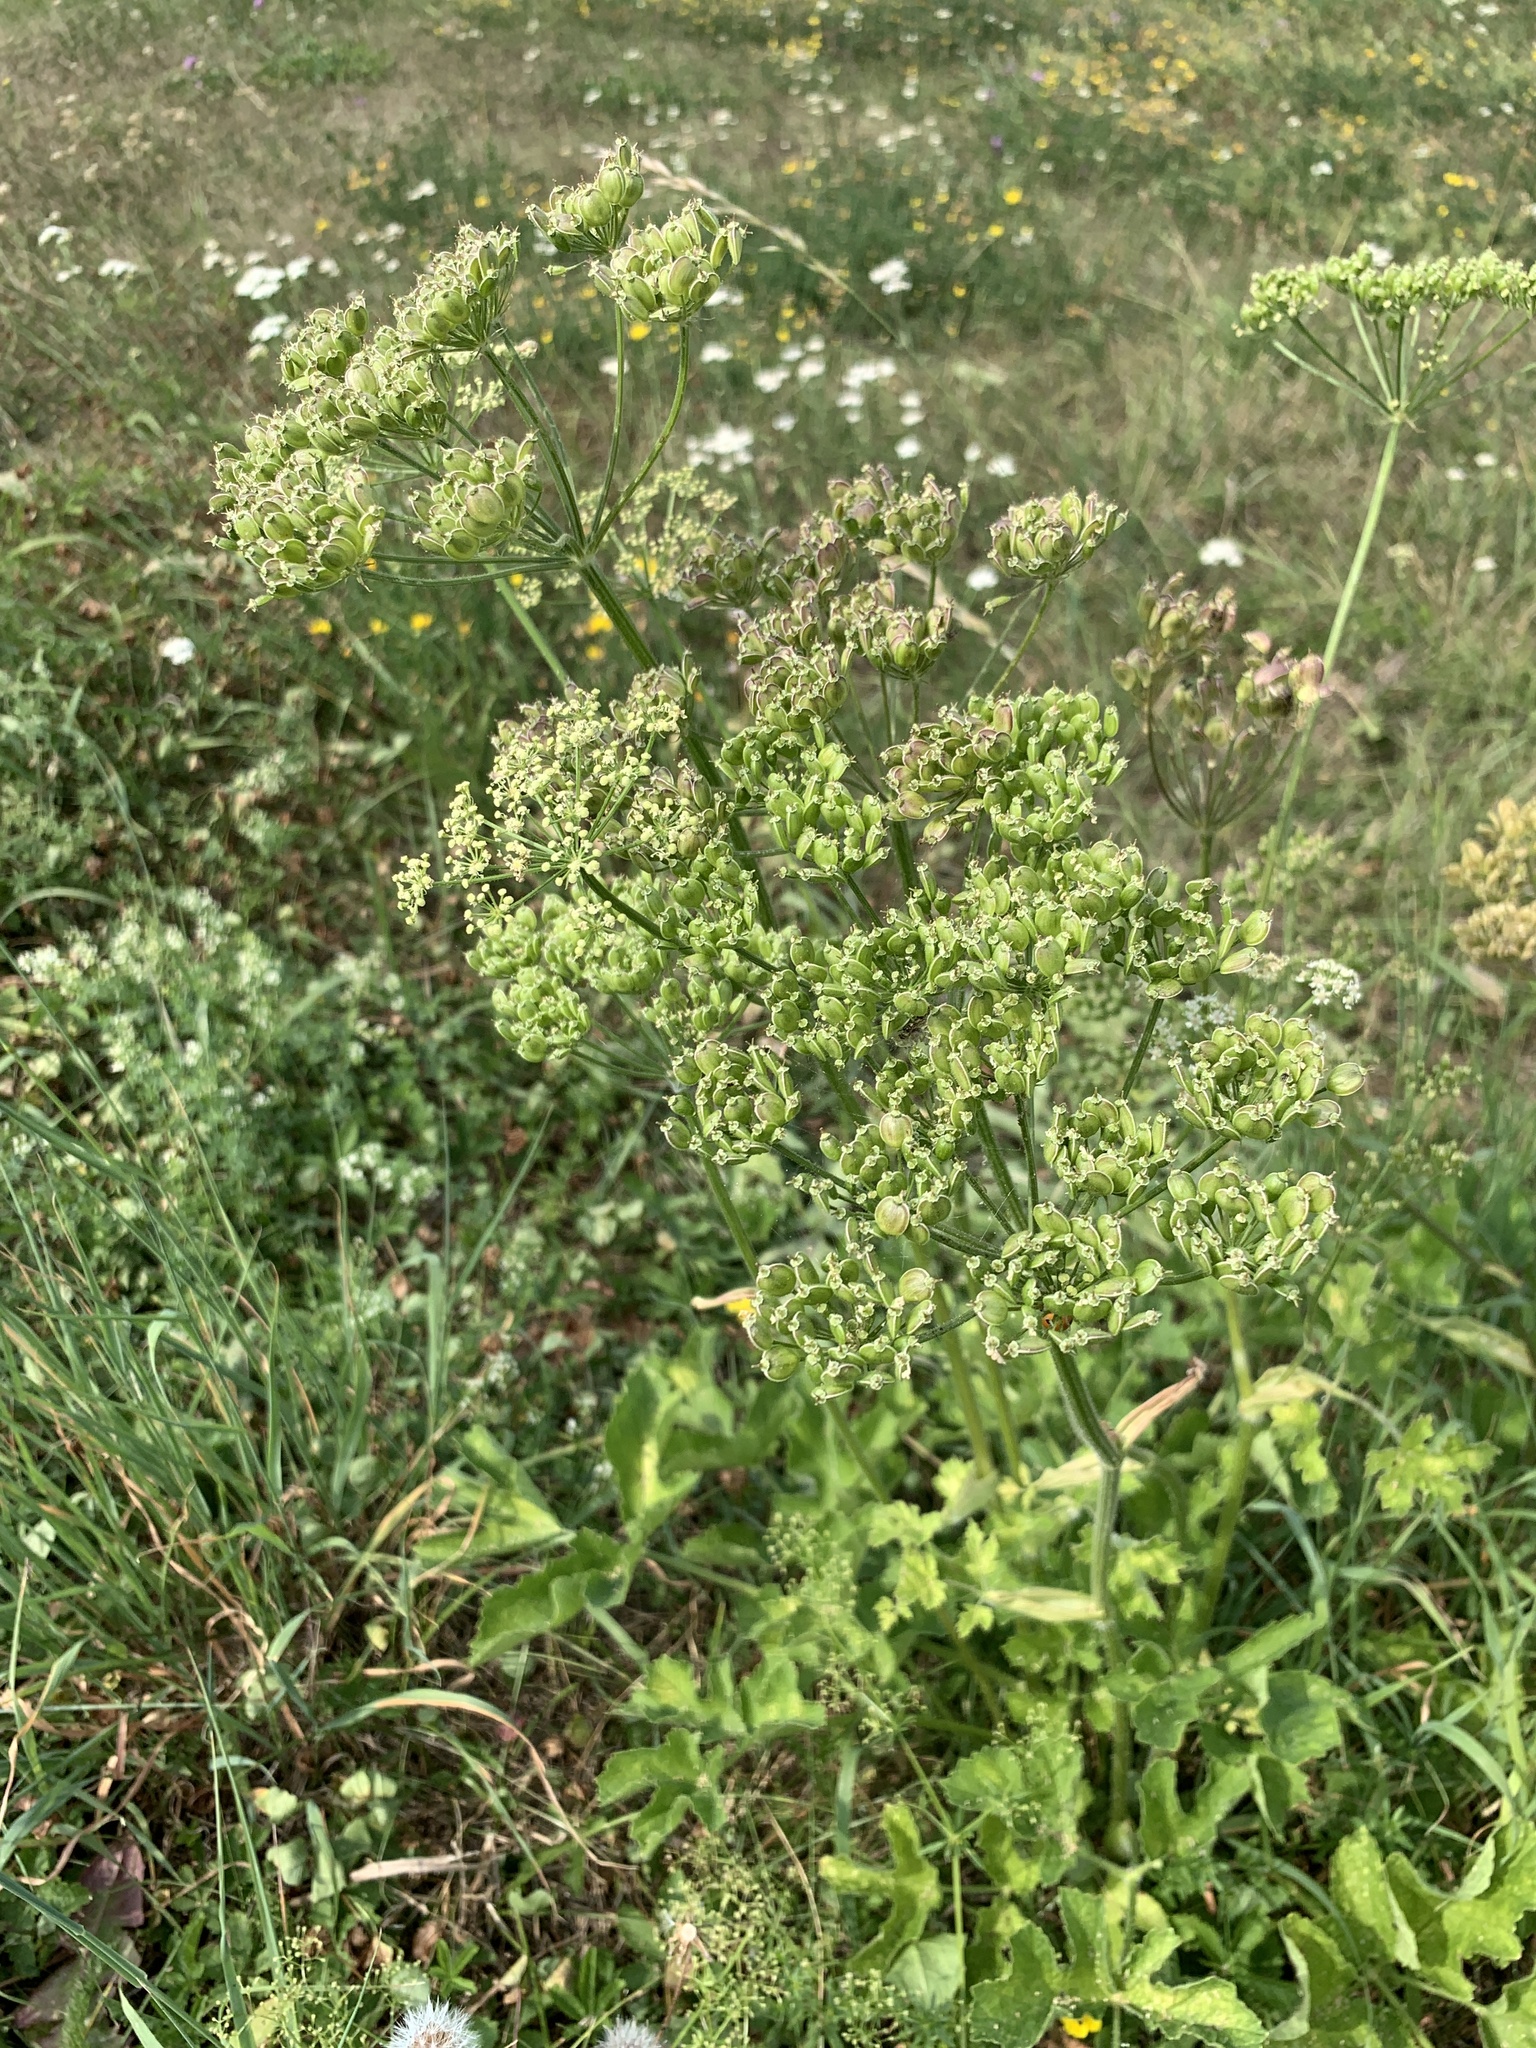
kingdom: Plantae
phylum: Tracheophyta
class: Magnoliopsida
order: Apiales
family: Apiaceae
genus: Heracleum
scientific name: Heracleum sphondylium
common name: Hogweed
